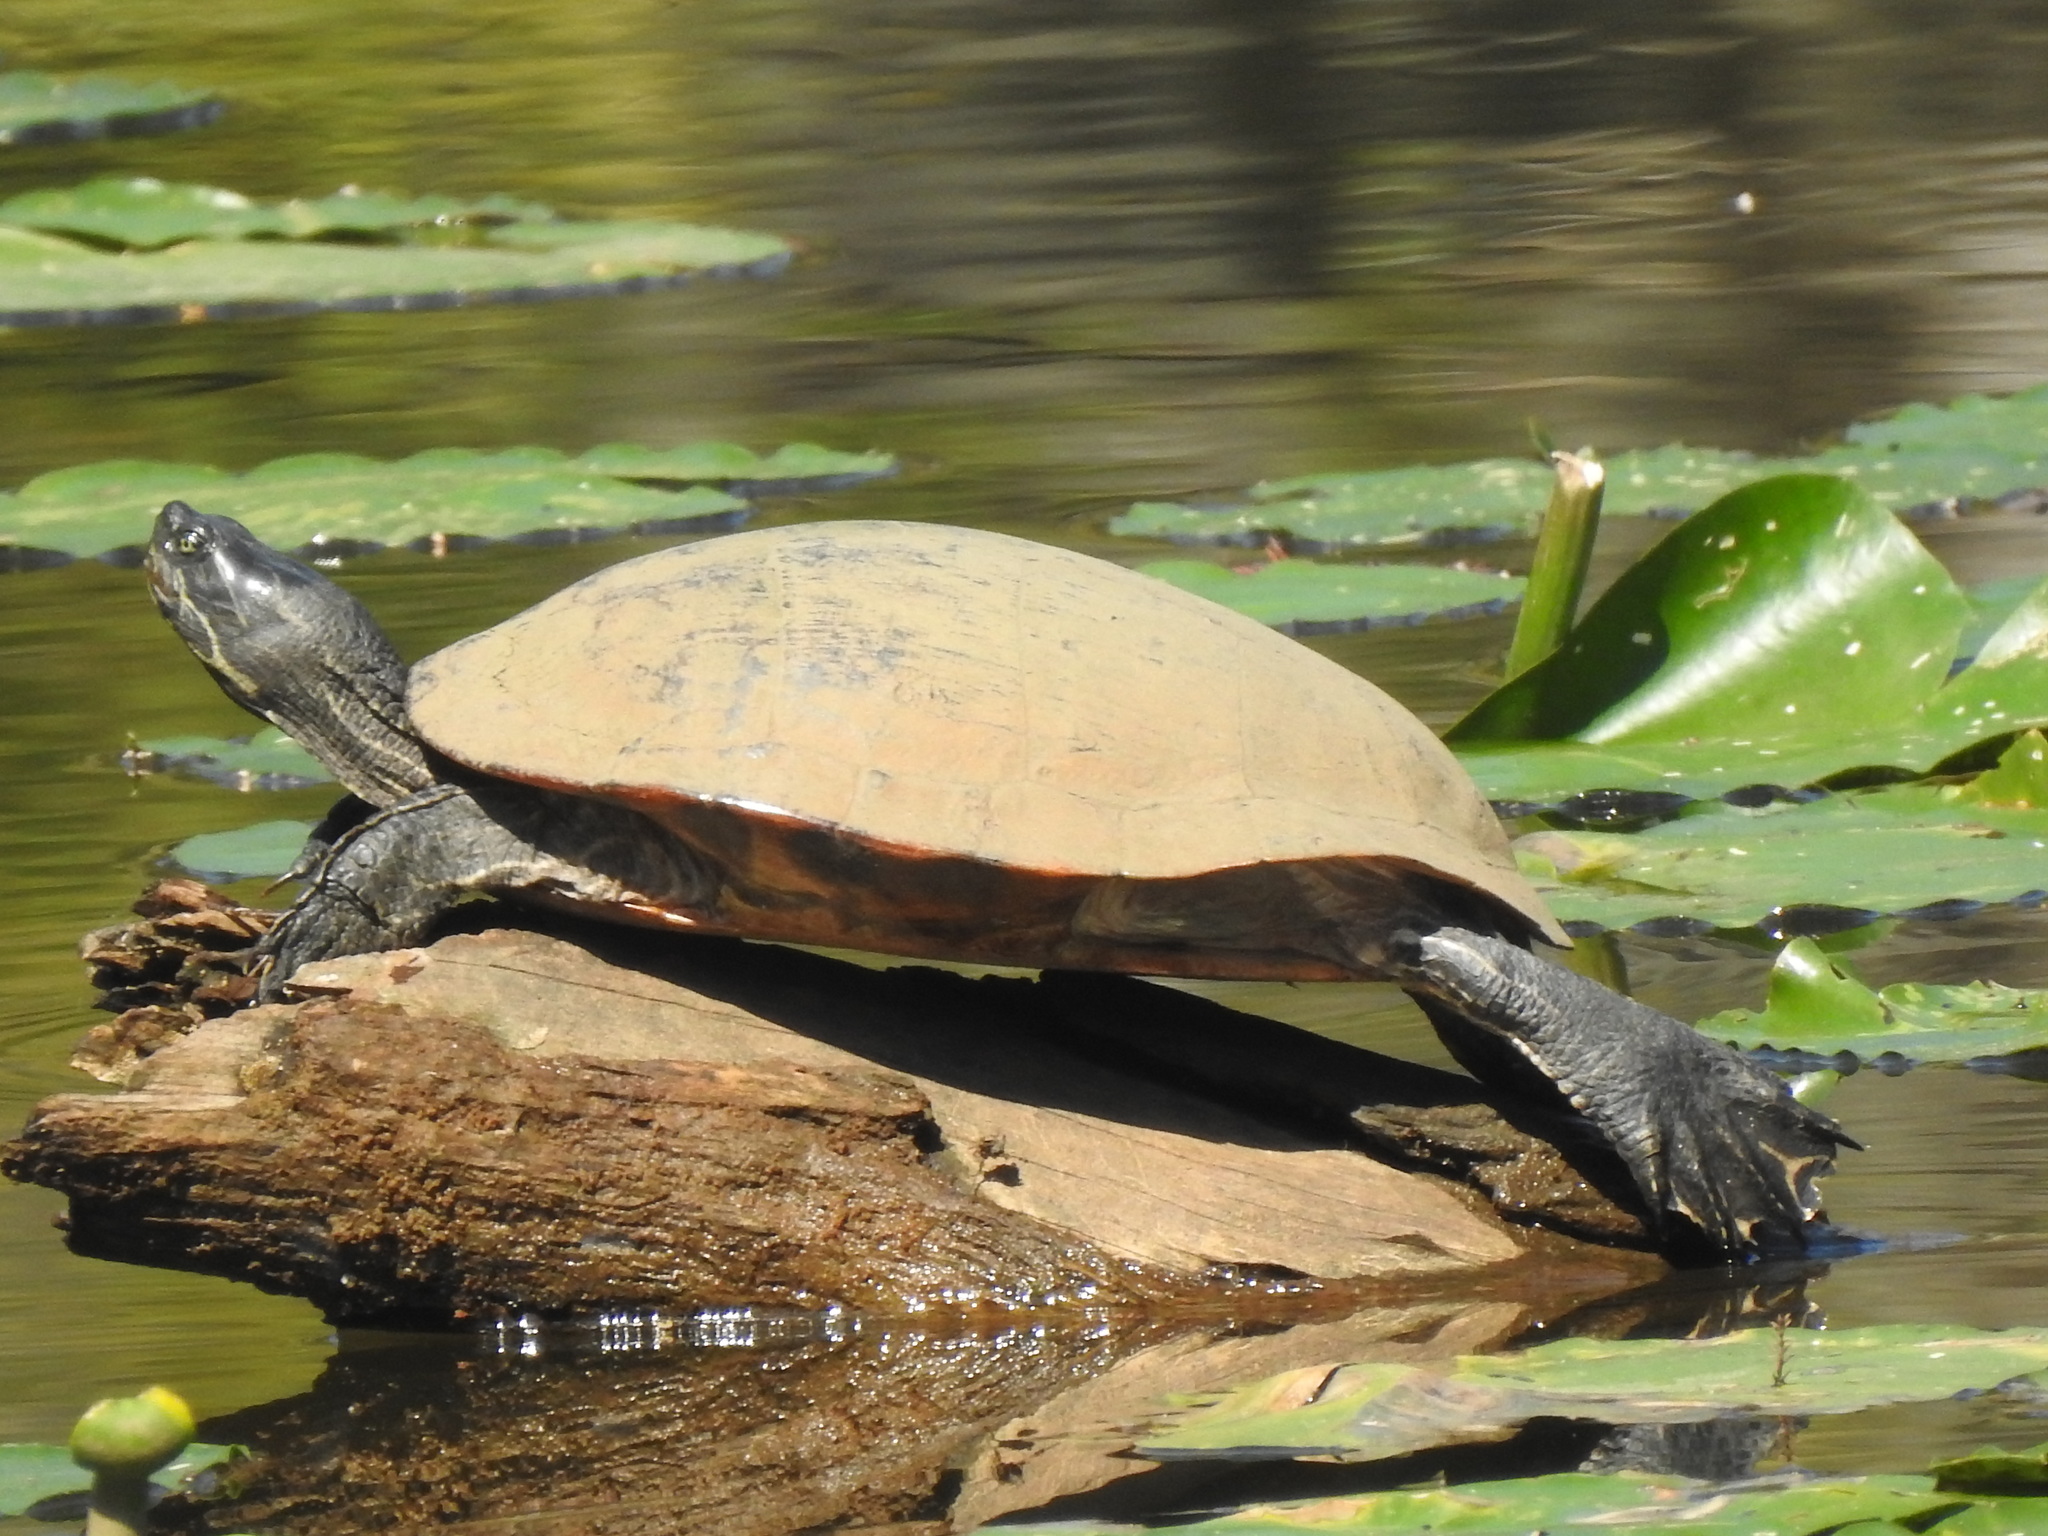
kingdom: Animalia
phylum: Chordata
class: Testudines
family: Emydidae
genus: Pseudemys
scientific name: Pseudemys concinna
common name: Eastern river cooter
